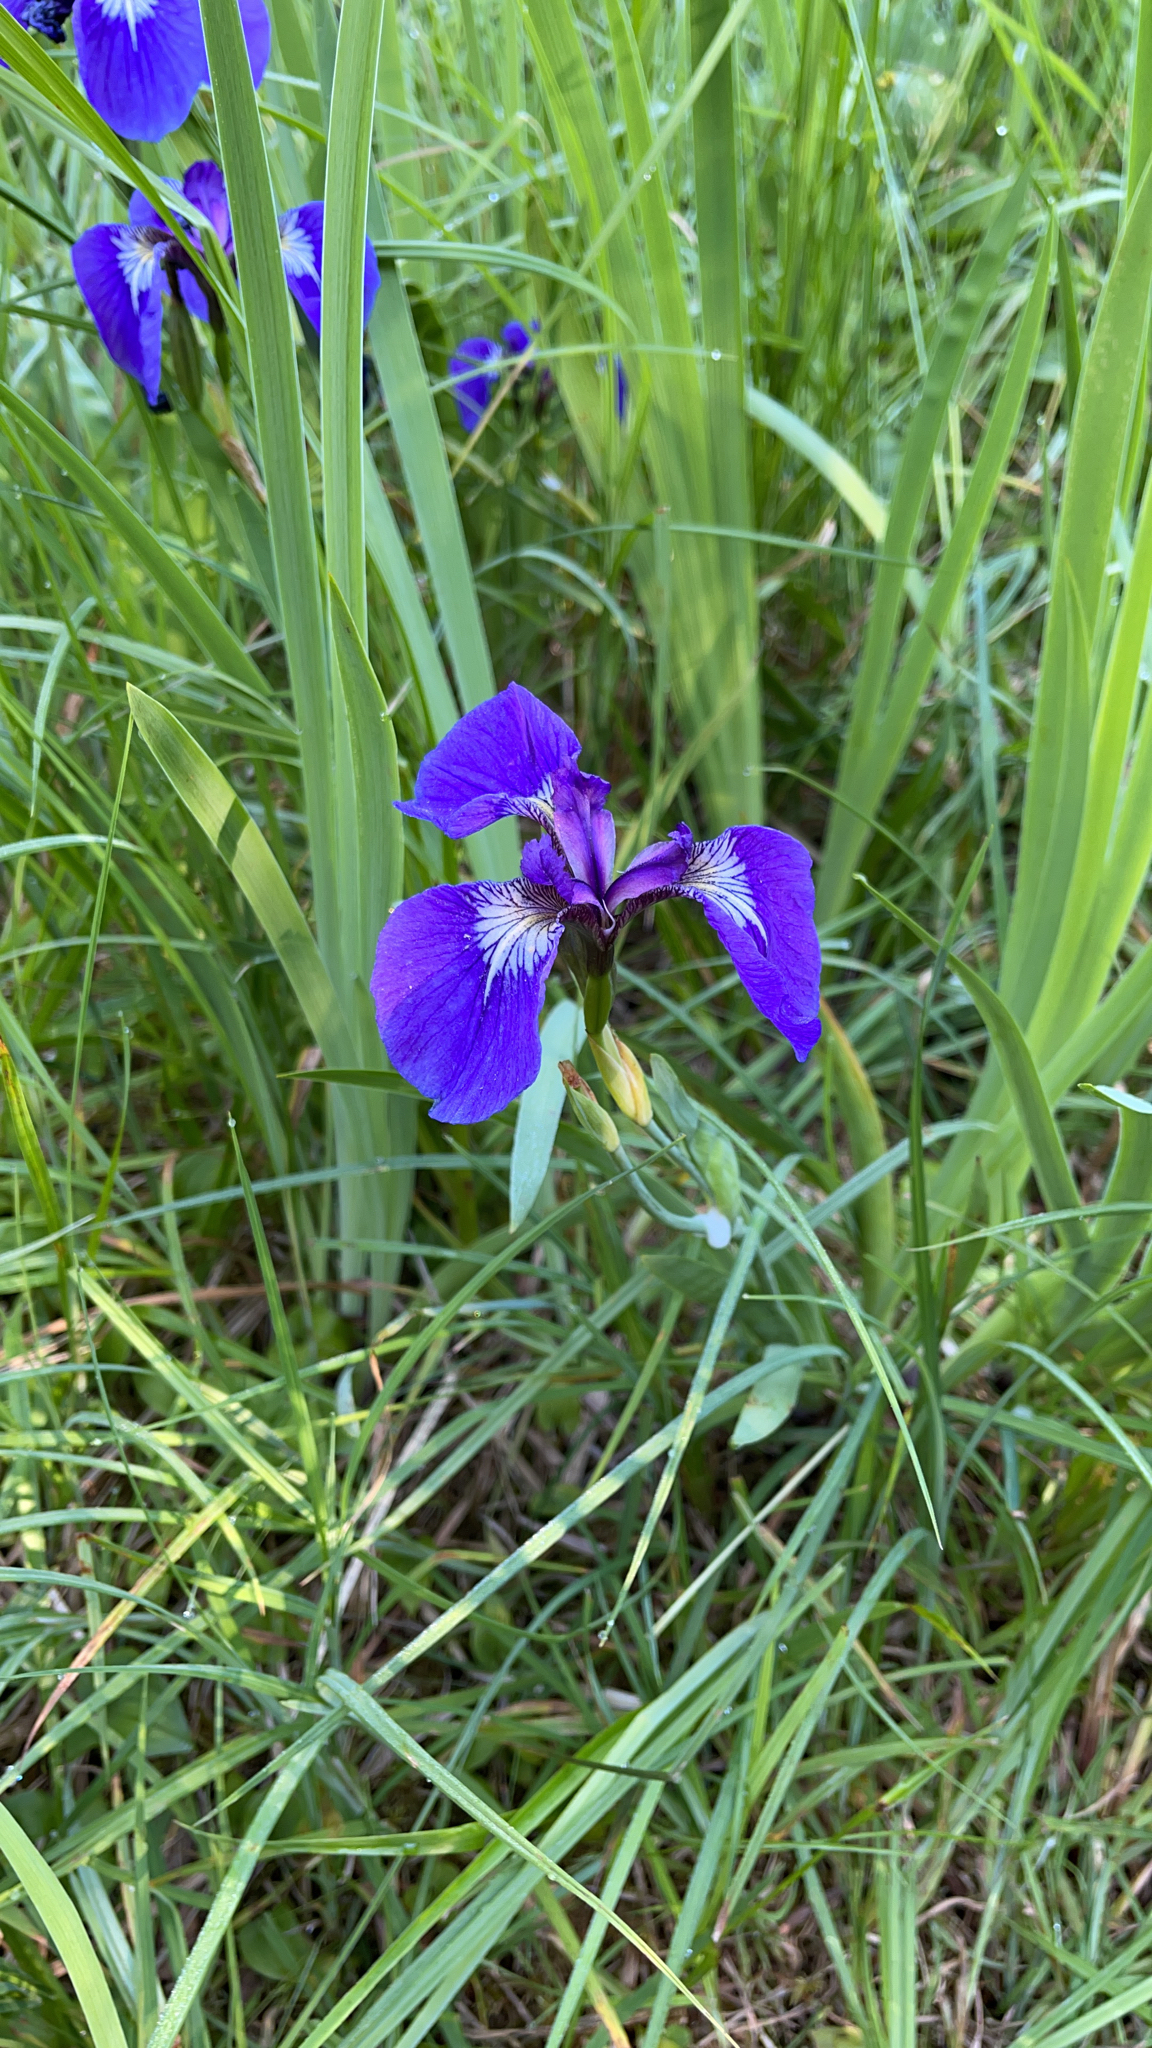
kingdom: Plantae
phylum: Tracheophyta
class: Liliopsida
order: Asparagales
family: Iridaceae
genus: Iris
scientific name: Iris setosa
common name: Arctic blue flag
